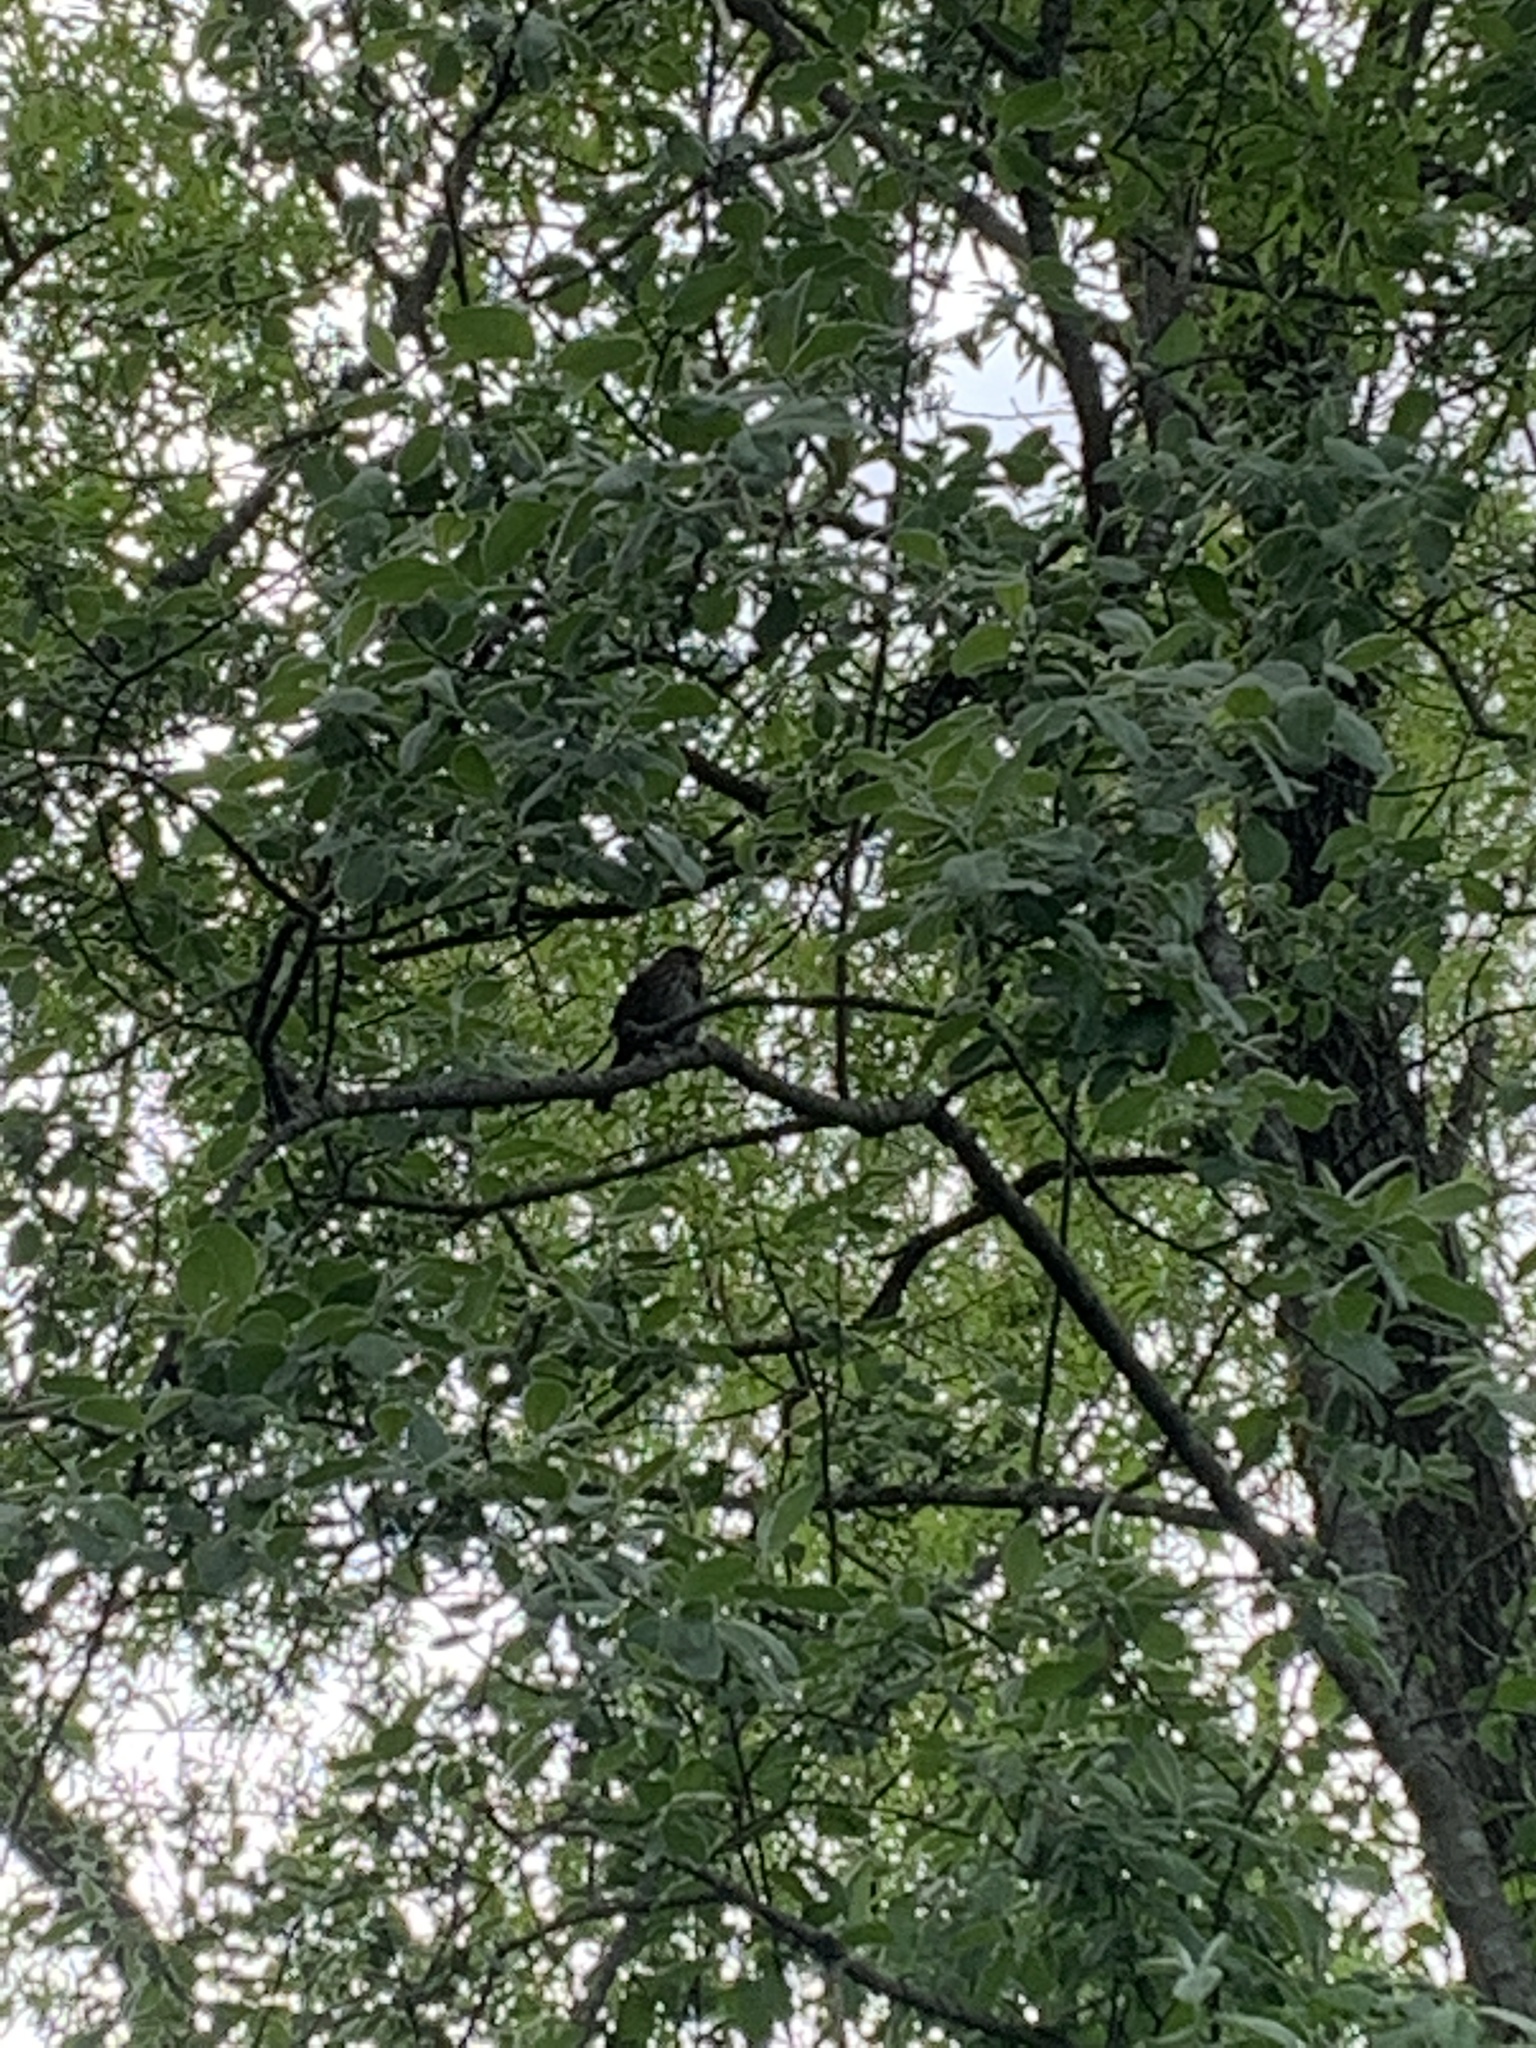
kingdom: Animalia
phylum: Chordata
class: Aves
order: Passeriformes
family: Passerellidae
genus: Melospiza
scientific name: Melospiza melodia
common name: Song sparrow
